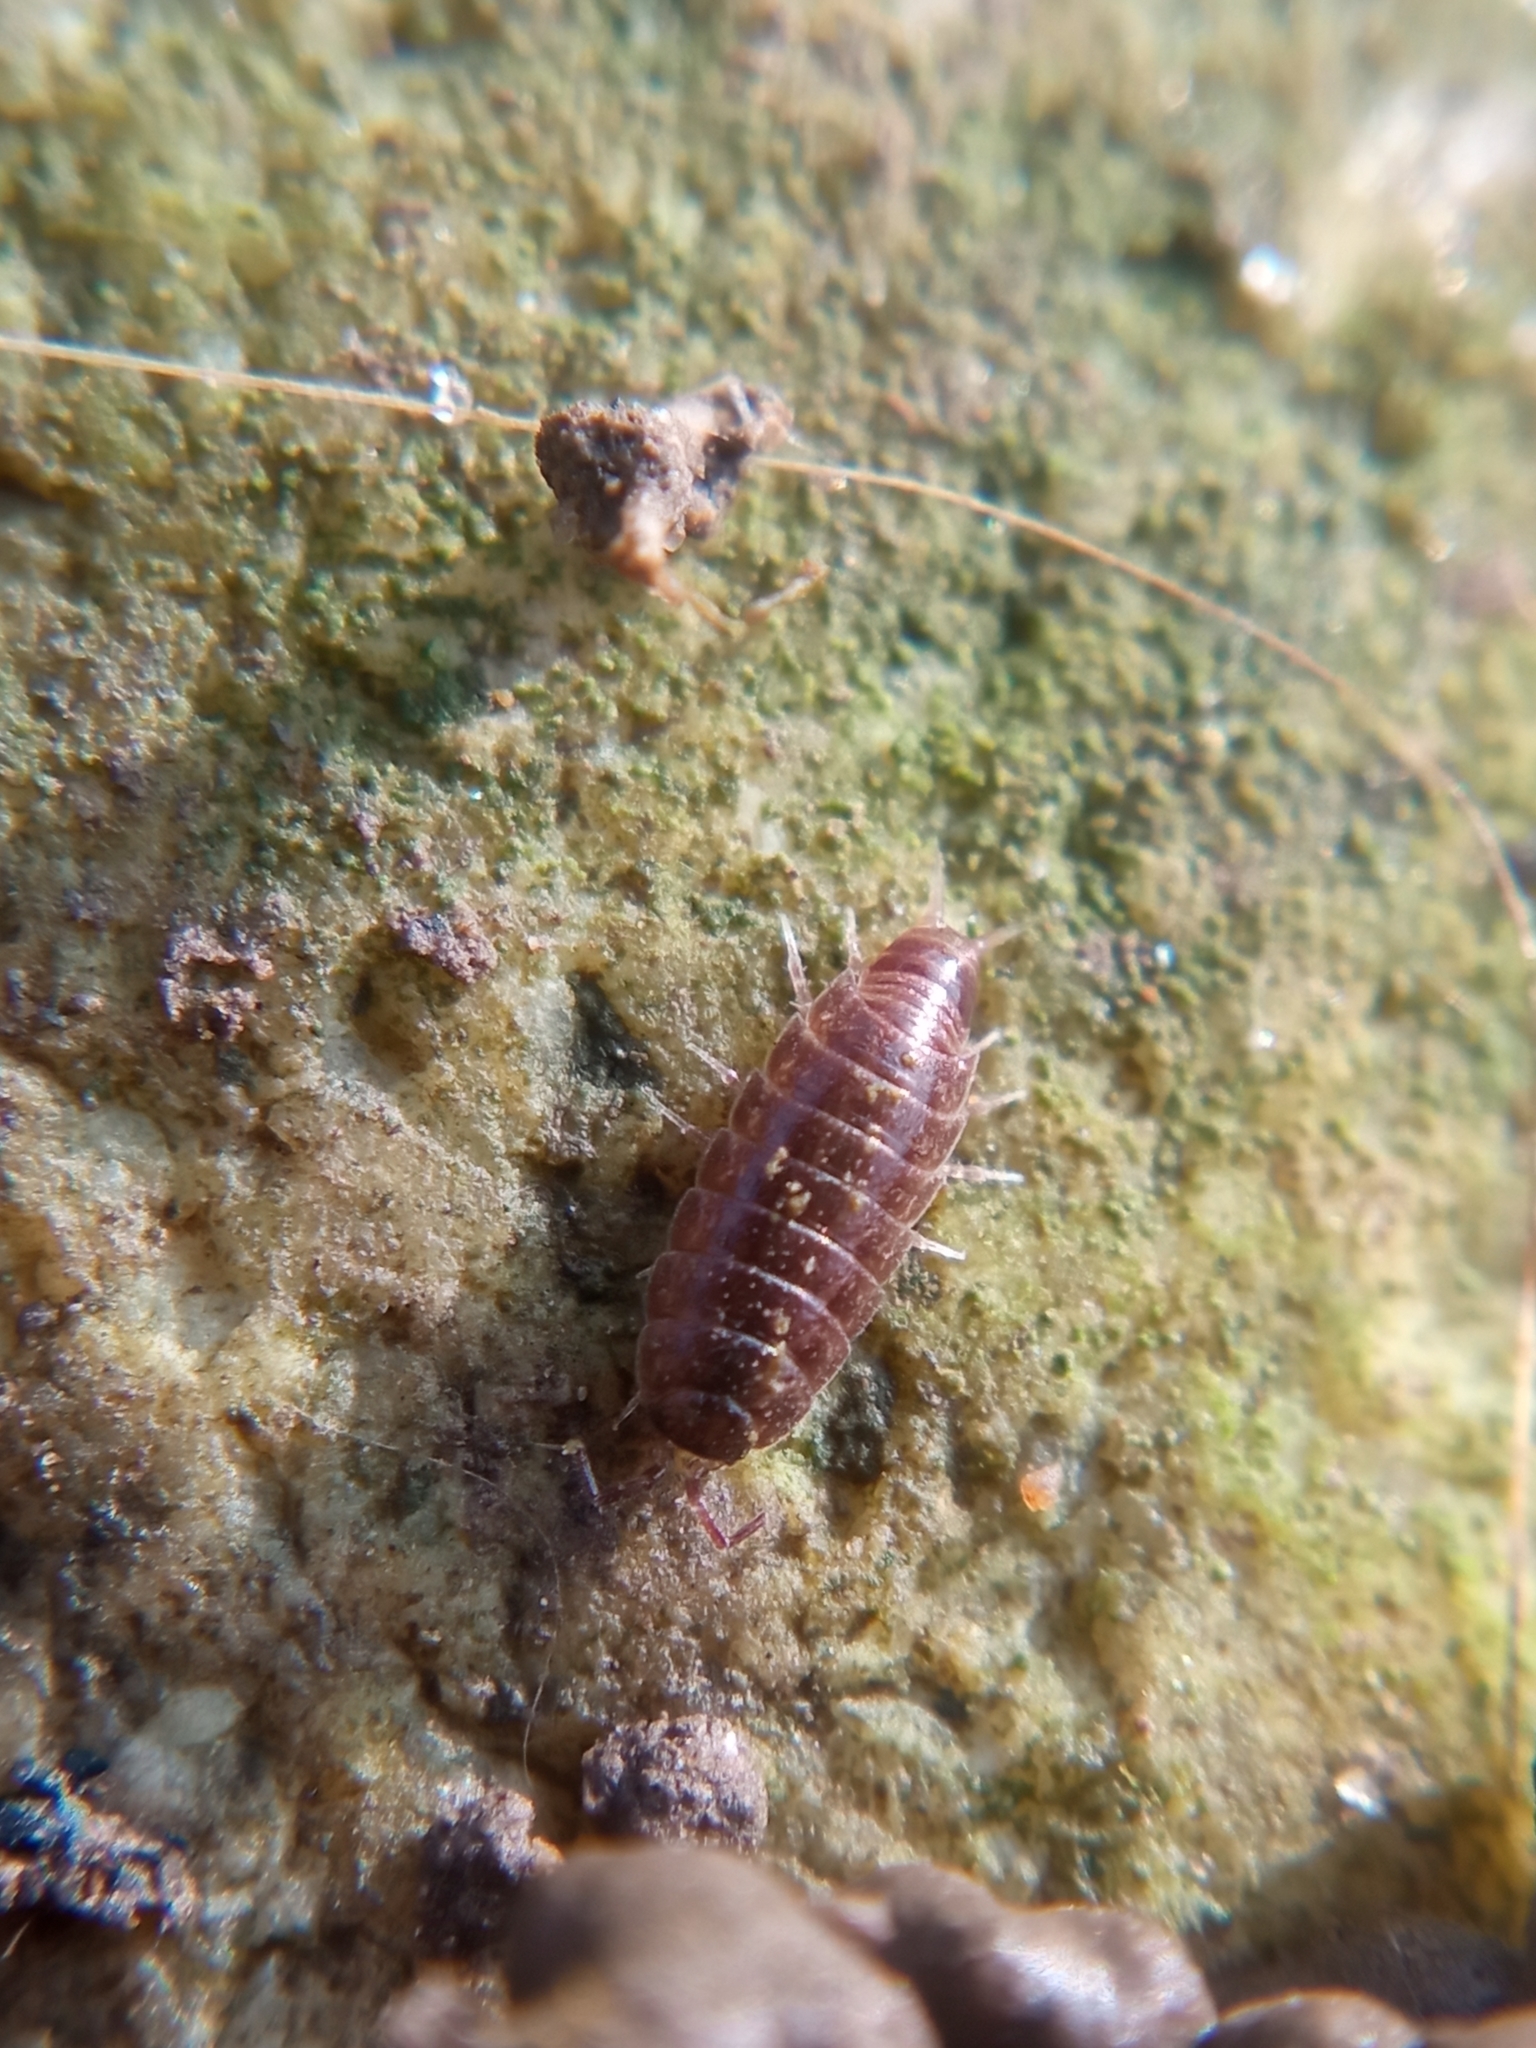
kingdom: Animalia
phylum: Arthropoda
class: Malacostraca
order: Isopoda
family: Trichoniscidae
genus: Hyloniscus
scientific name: Hyloniscus riparius
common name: Isopod
